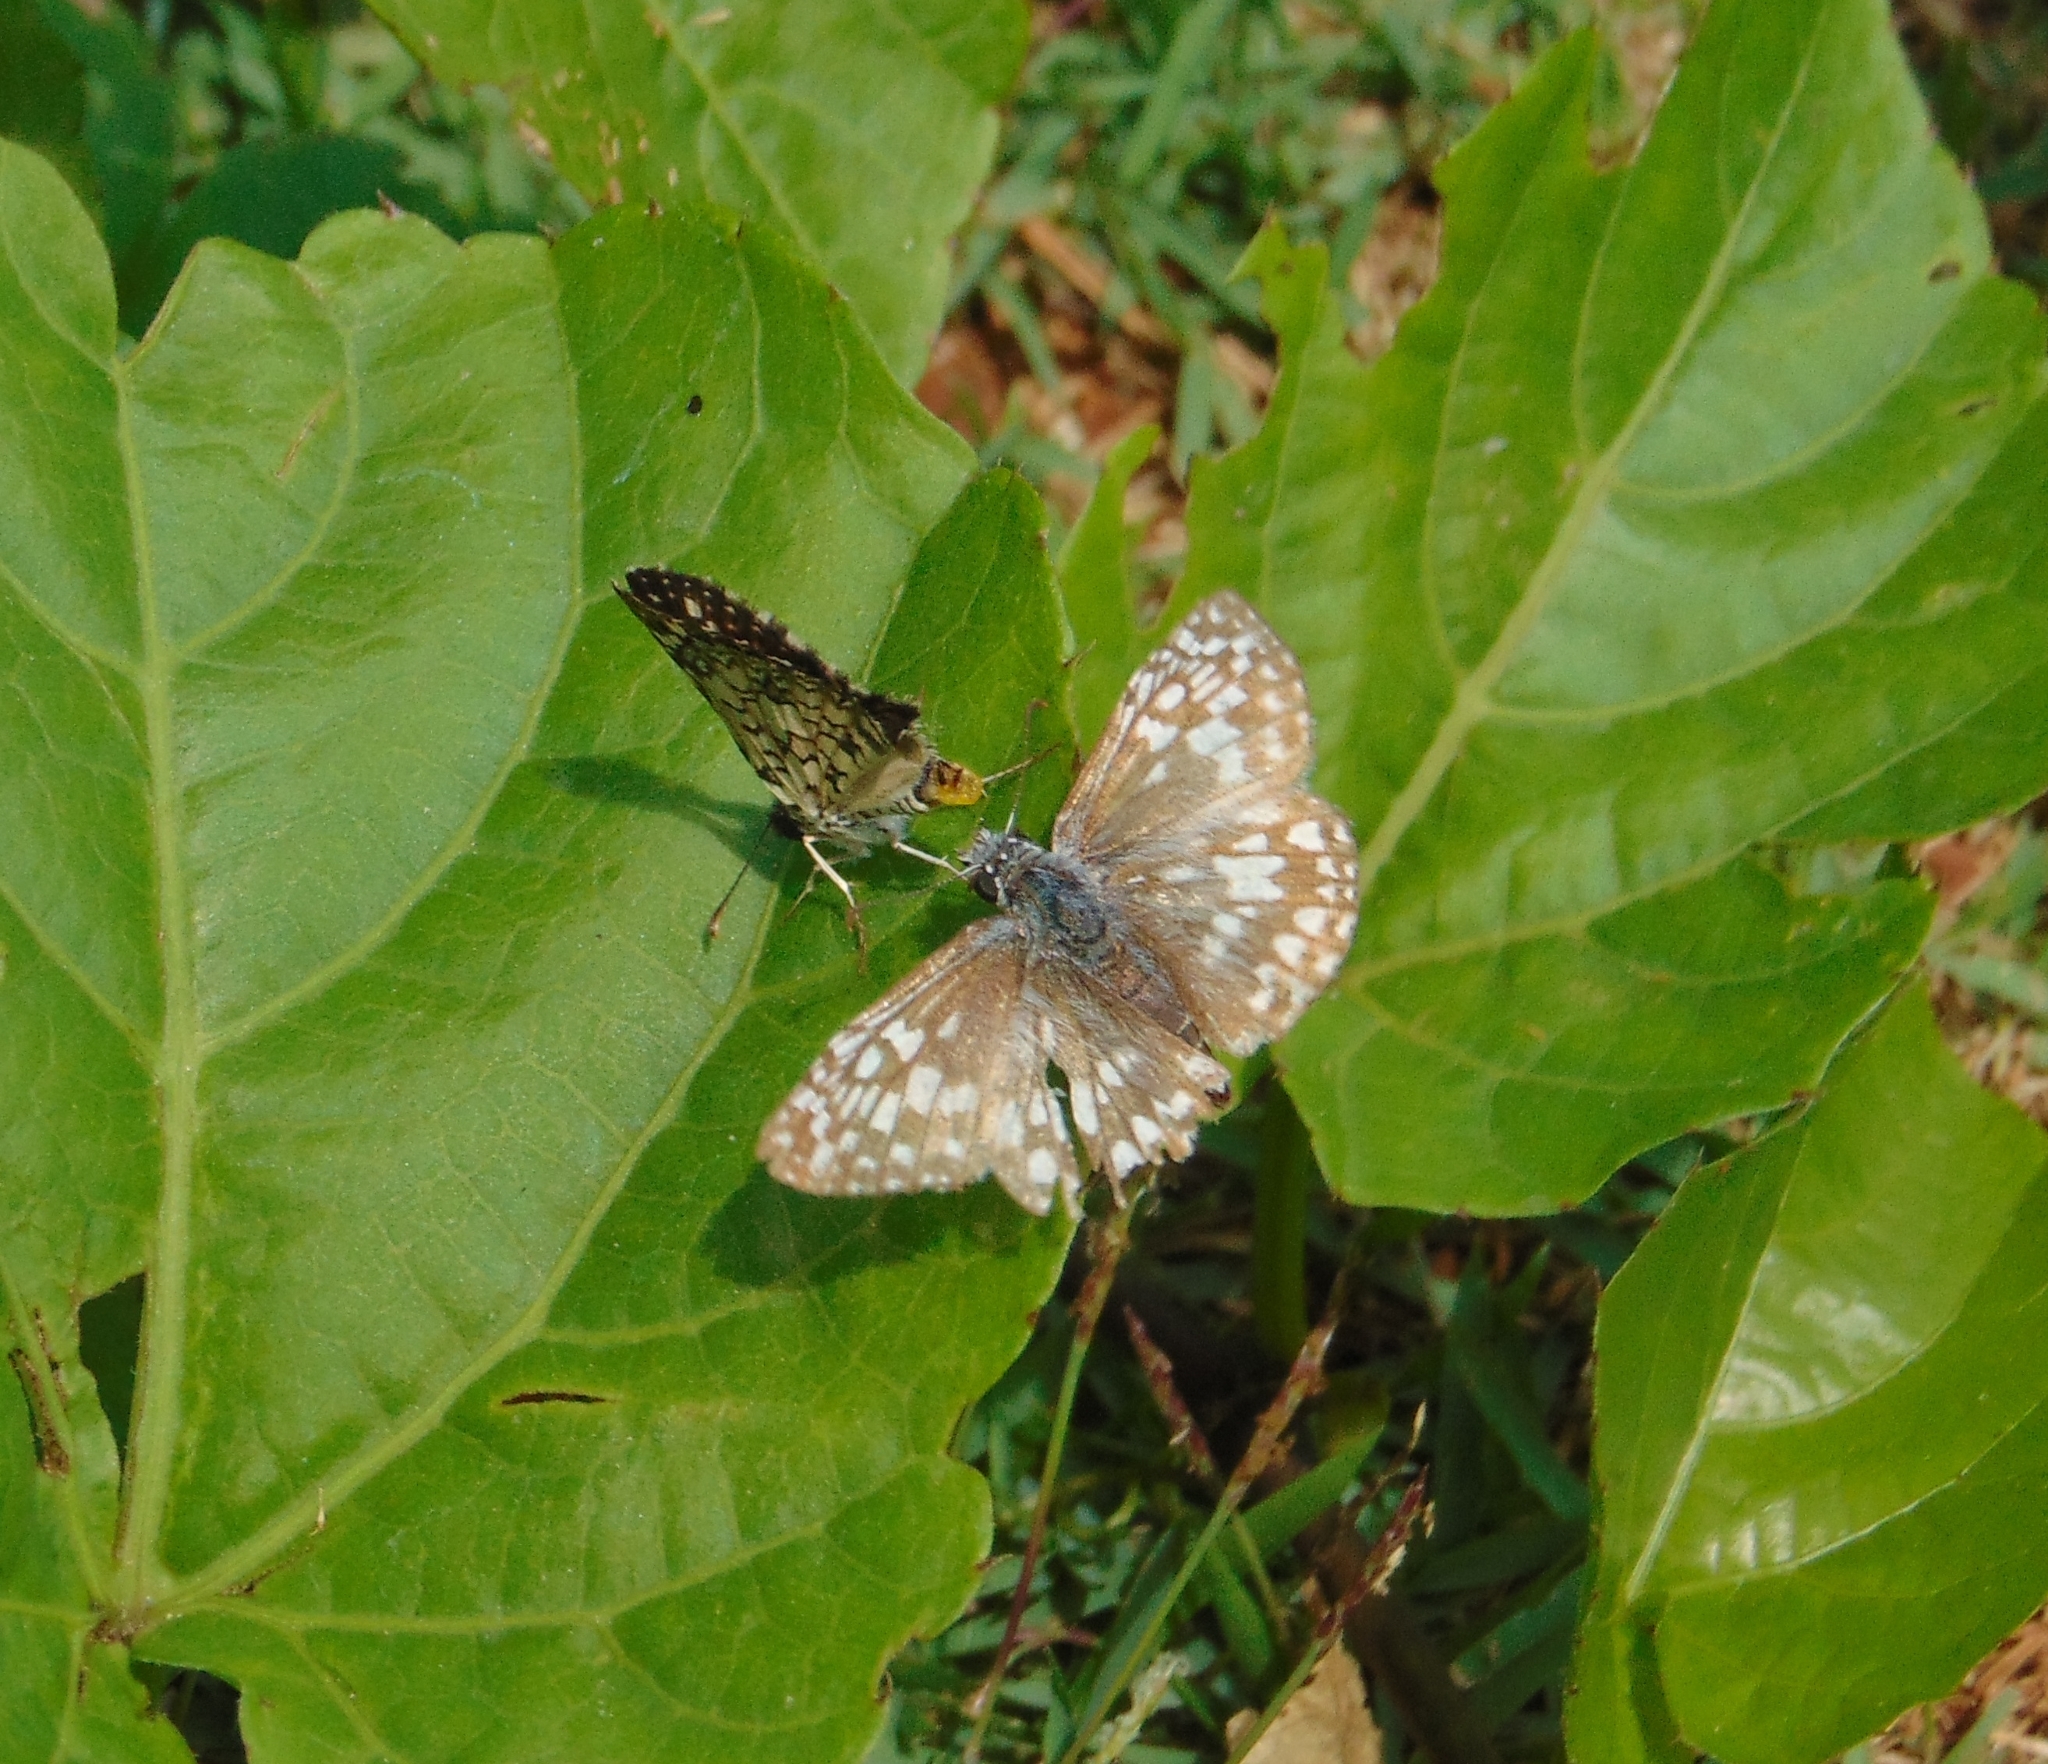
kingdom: Animalia
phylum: Arthropoda
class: Insecta
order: Lepidoptera
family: Hesperiidae
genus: Pyrgus
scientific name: Pyrgus oileus
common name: Tropical checkered-skipper
